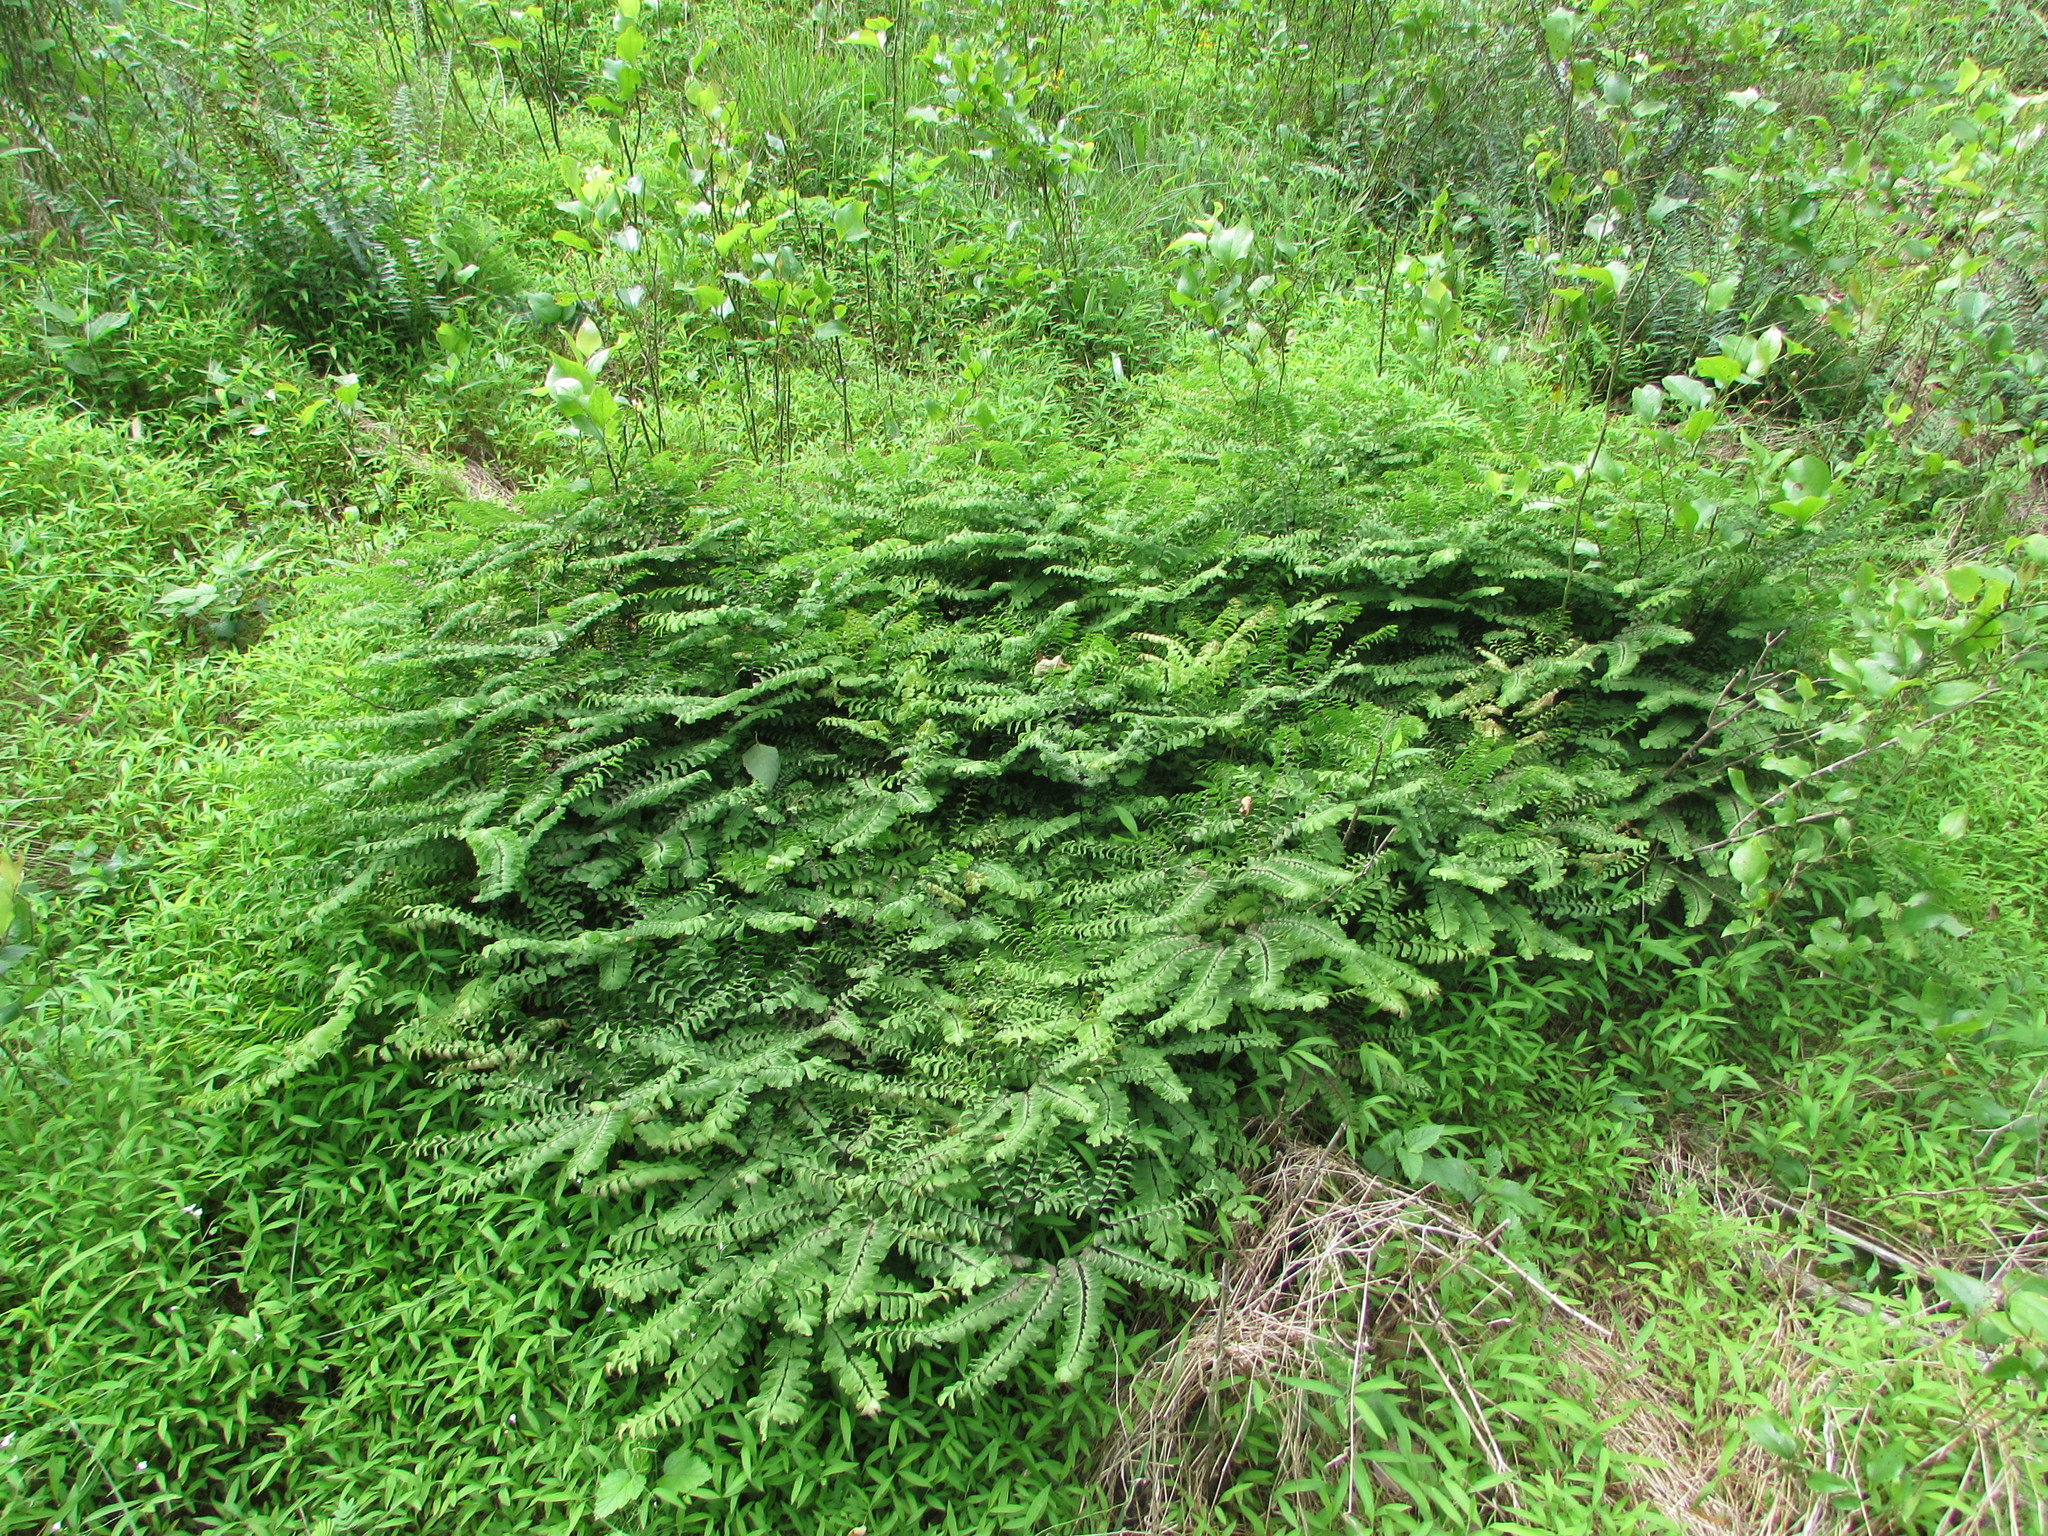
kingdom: Plantae
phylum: Tracheophyta
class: Polypodiopsida
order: Polypodiales
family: Pteridaceae
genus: Adiantum
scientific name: Adiantum pedatum
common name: Five-finger fern
